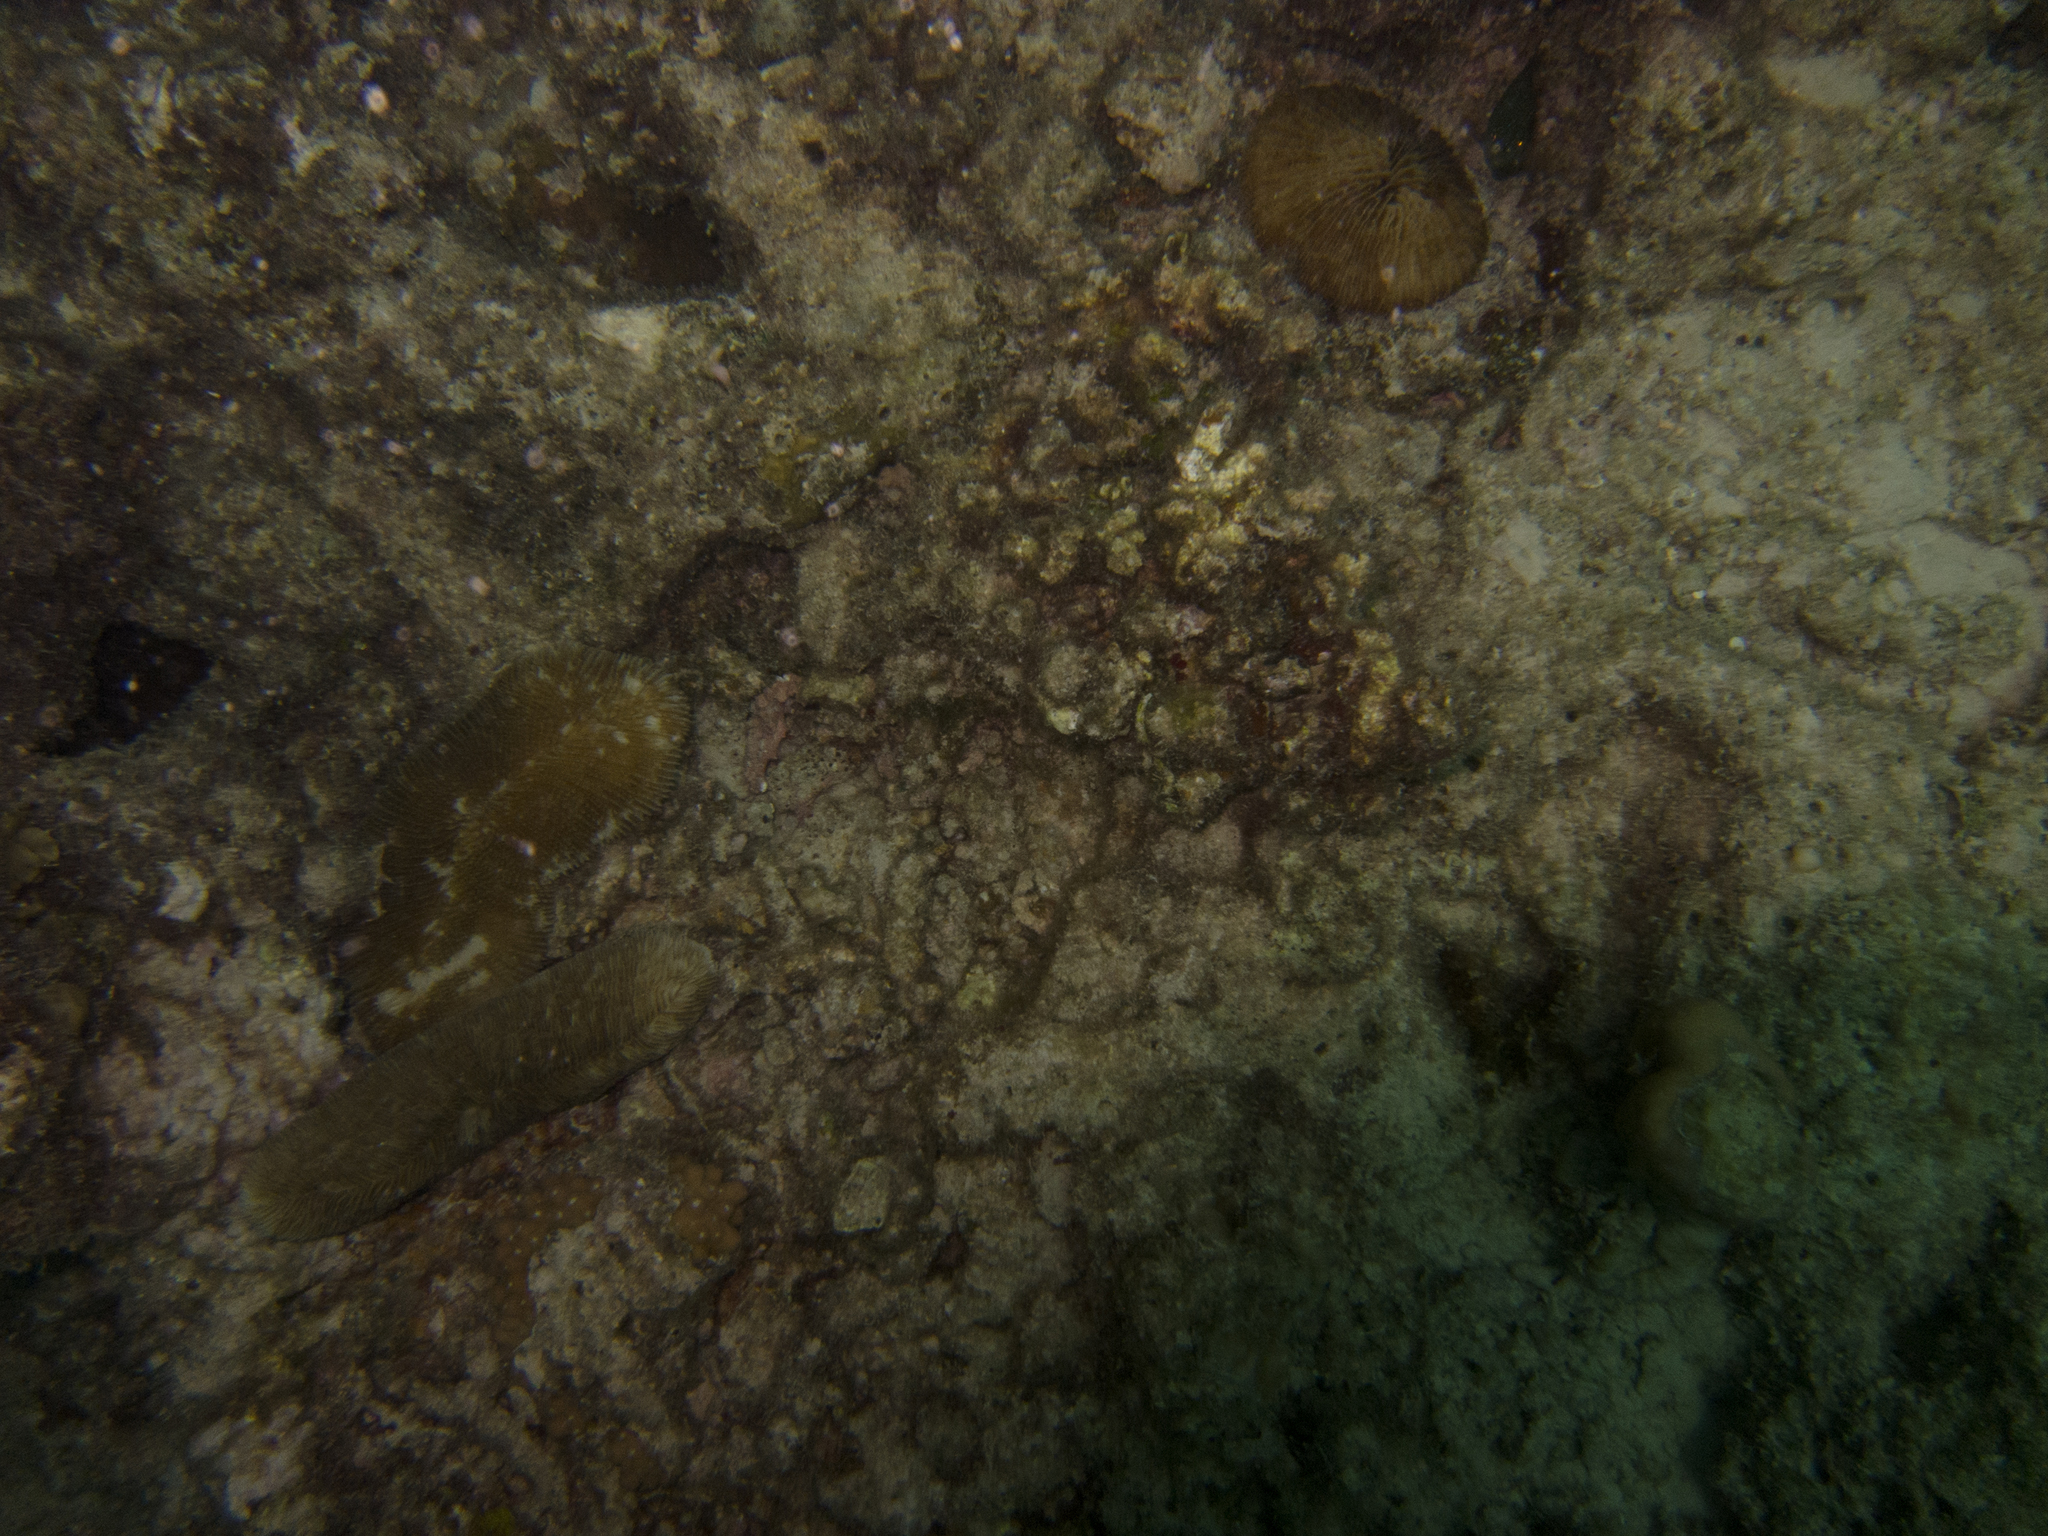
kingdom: Animalia
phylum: Cnidaria
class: Anthozoa
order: Scleractinia
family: Fungiidae
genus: Herpolitha
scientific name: Herpolitha limax
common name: Striate boomerang coral
